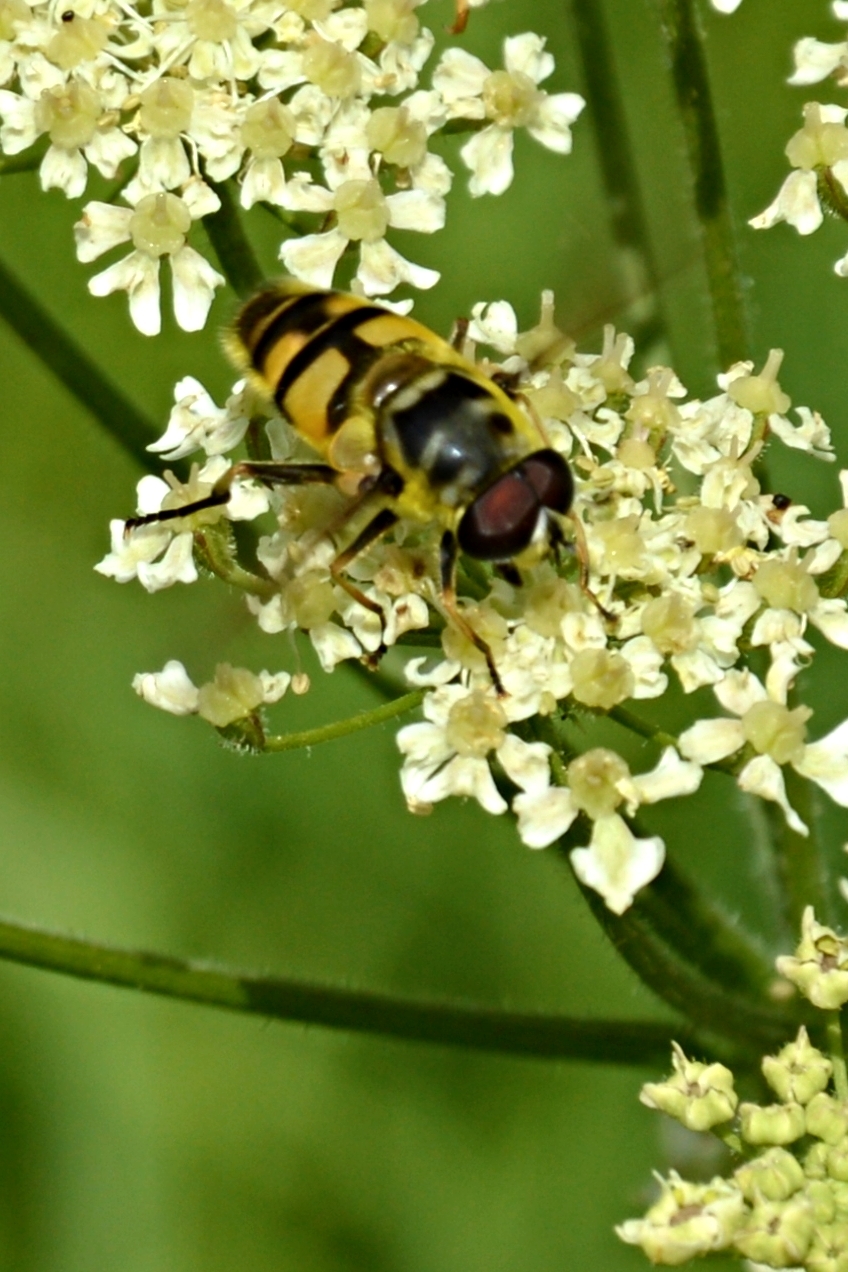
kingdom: Animalia
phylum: Arthropoda
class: Insecta
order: Diptera
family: Syrphidae
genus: Myathropa
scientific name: Myathropa florea
